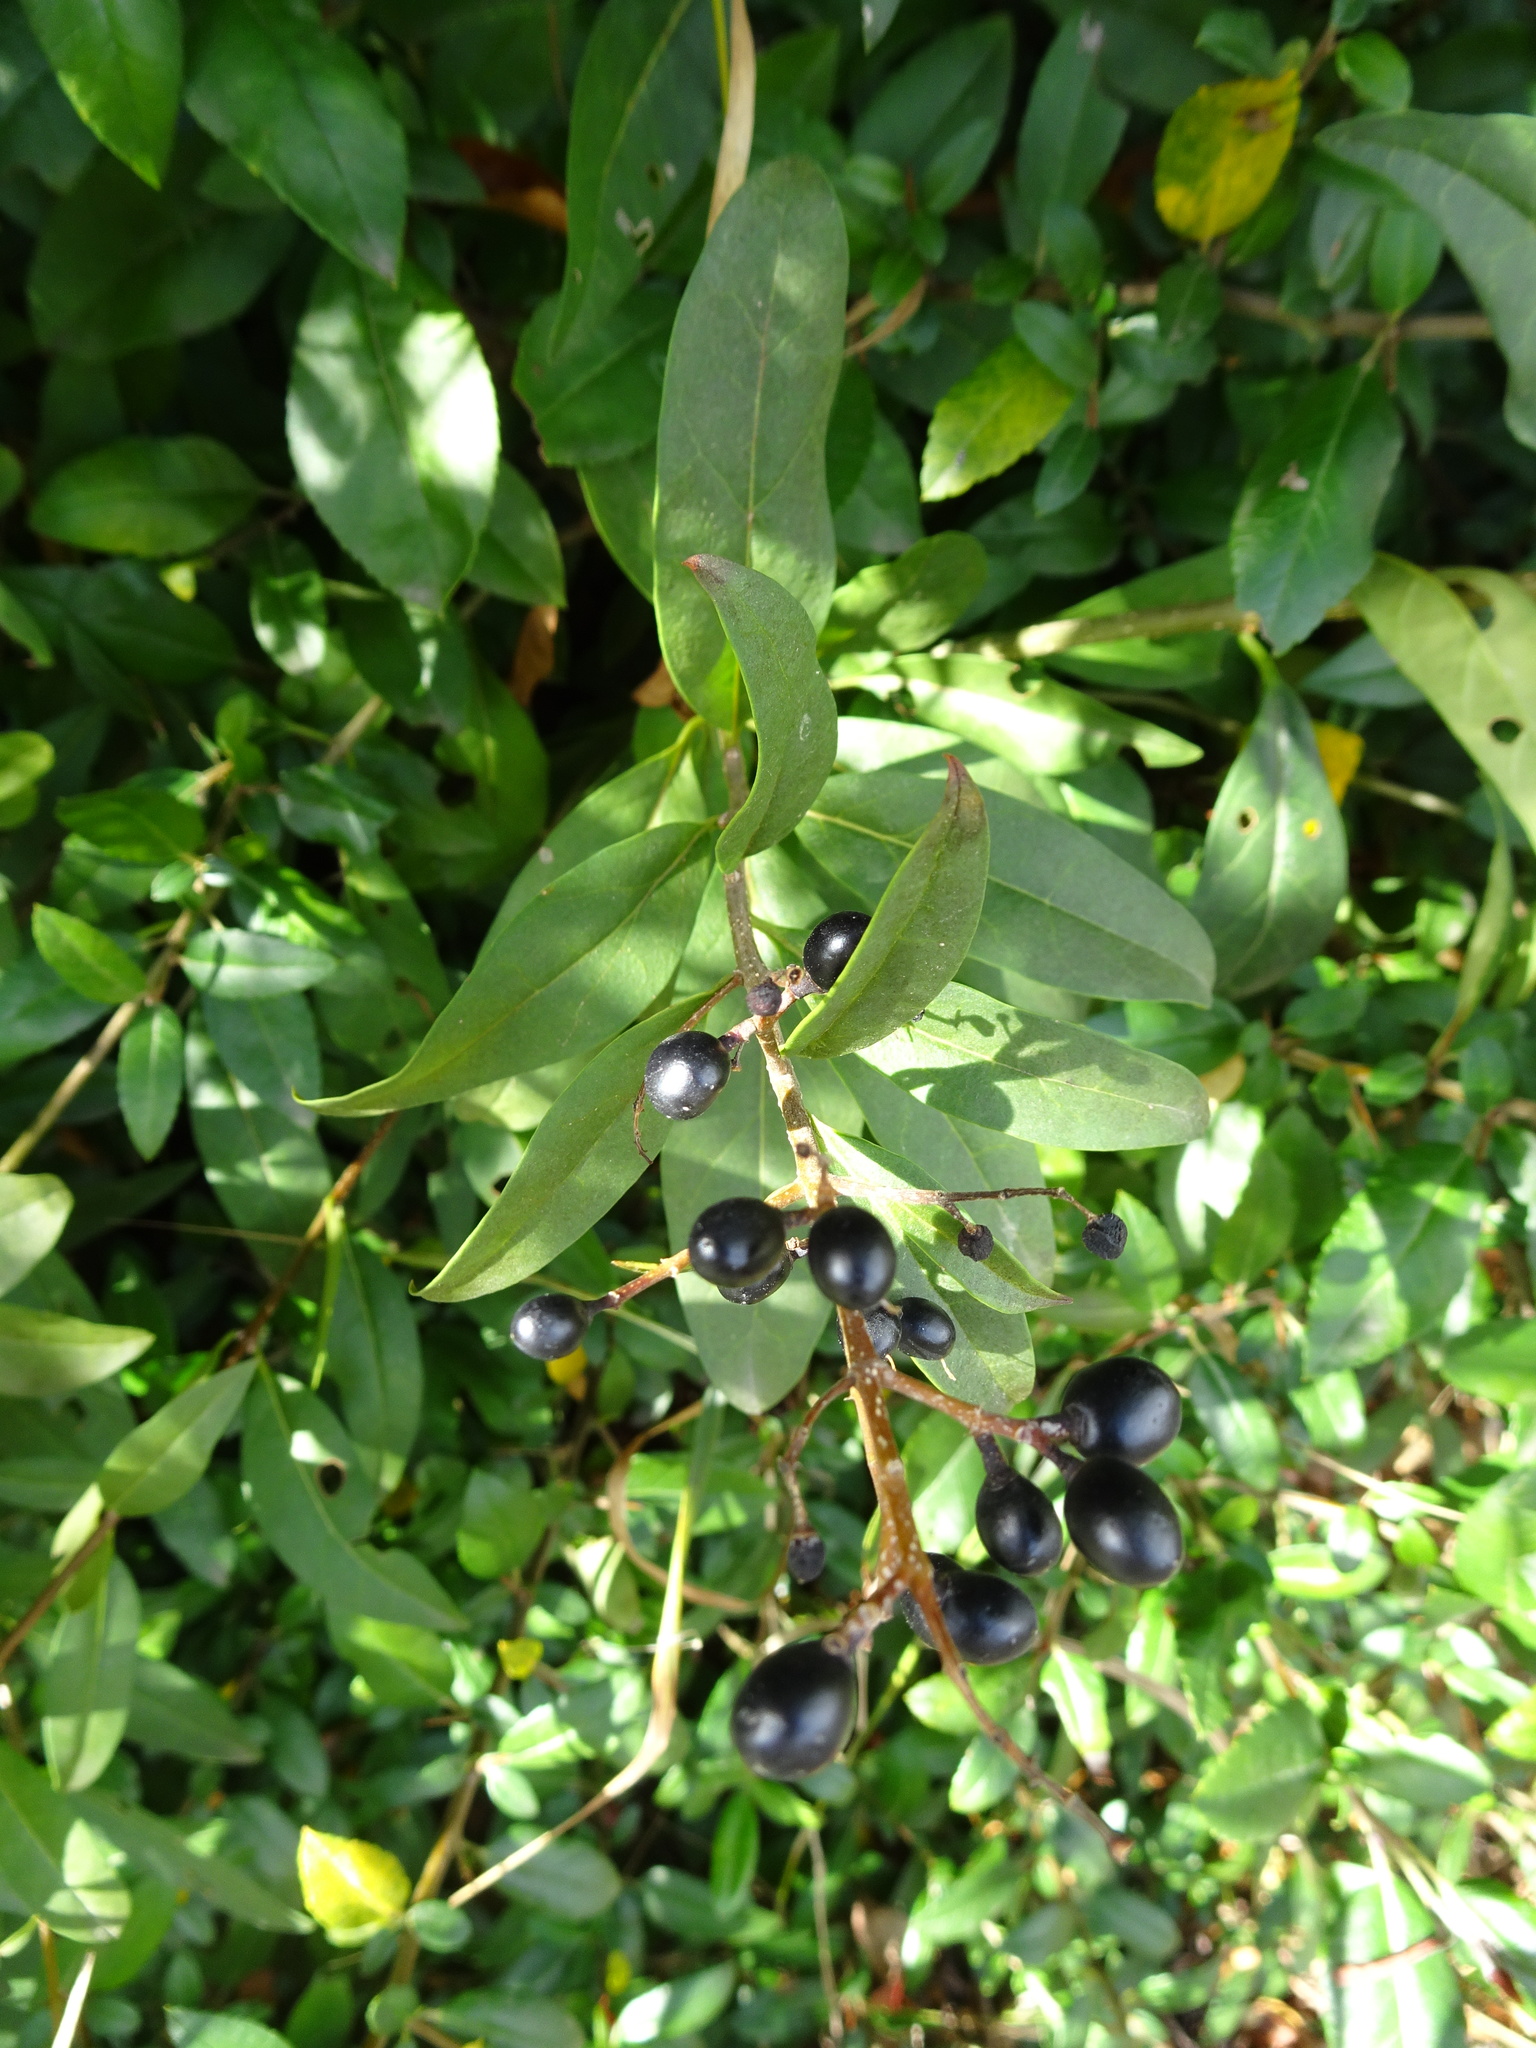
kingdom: Plantae
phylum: Tracheophyta
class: Magnoliopsida
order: Lamiales
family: Oleaceae
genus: Ligustrum
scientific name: Ligustrum vulgare
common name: Wild privet
